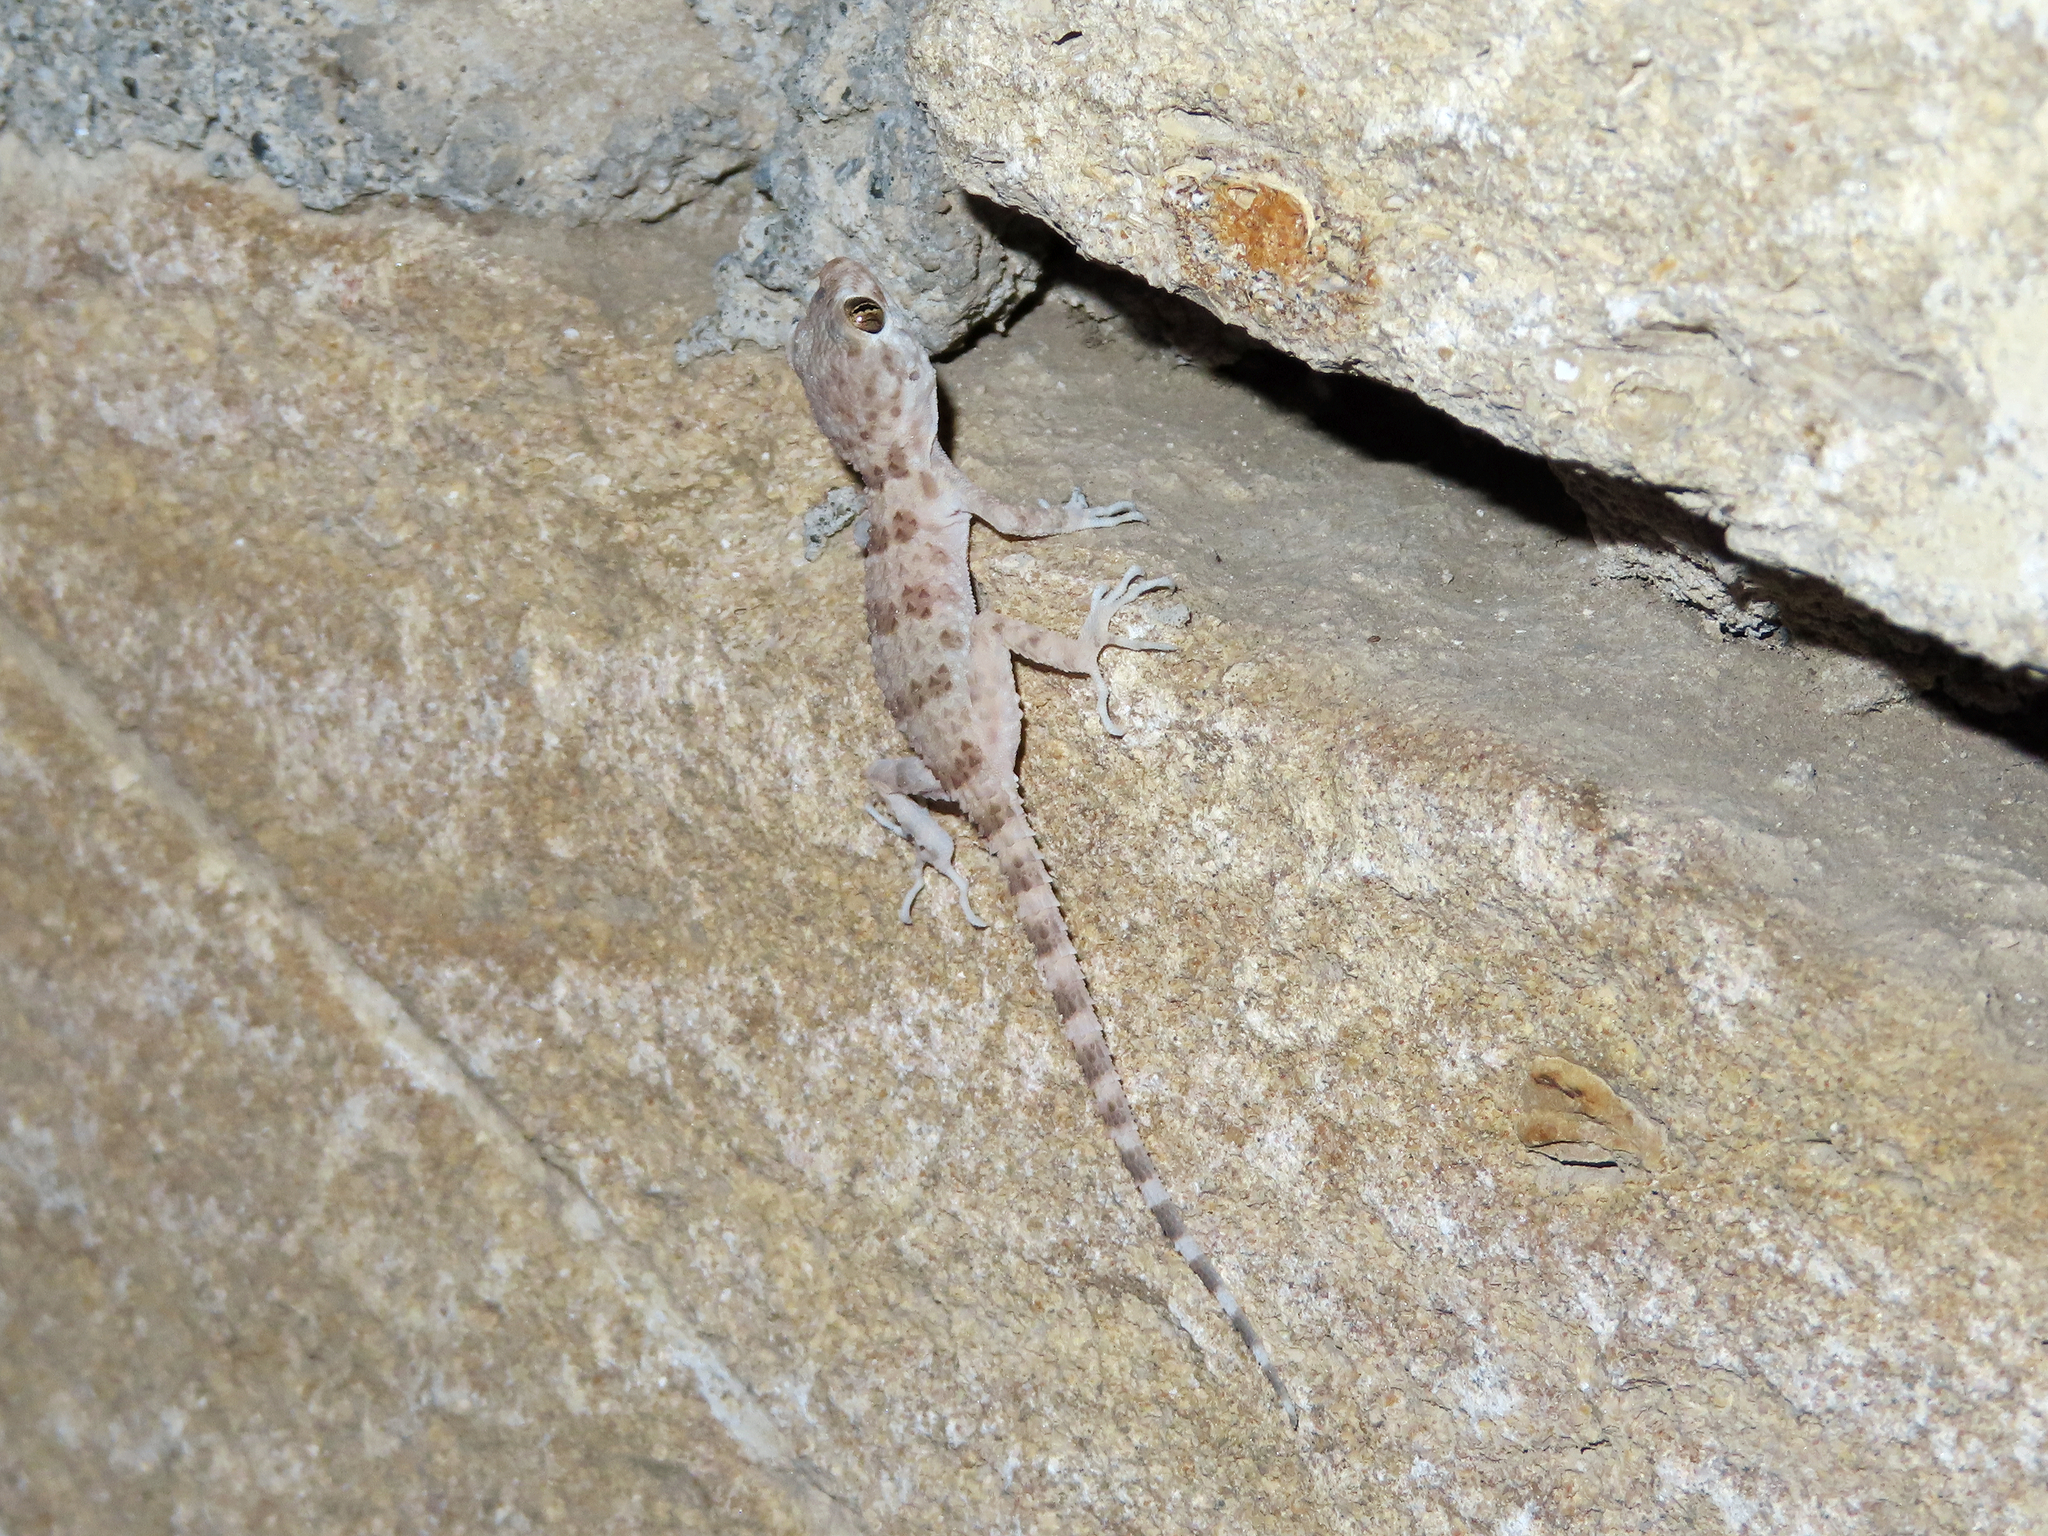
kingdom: Animalia
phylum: Chordata
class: Squamata
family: Gekkonidae
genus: Tenuidactylus
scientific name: Tenuidactylus caspius
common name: Caspian bent-toed gecko
